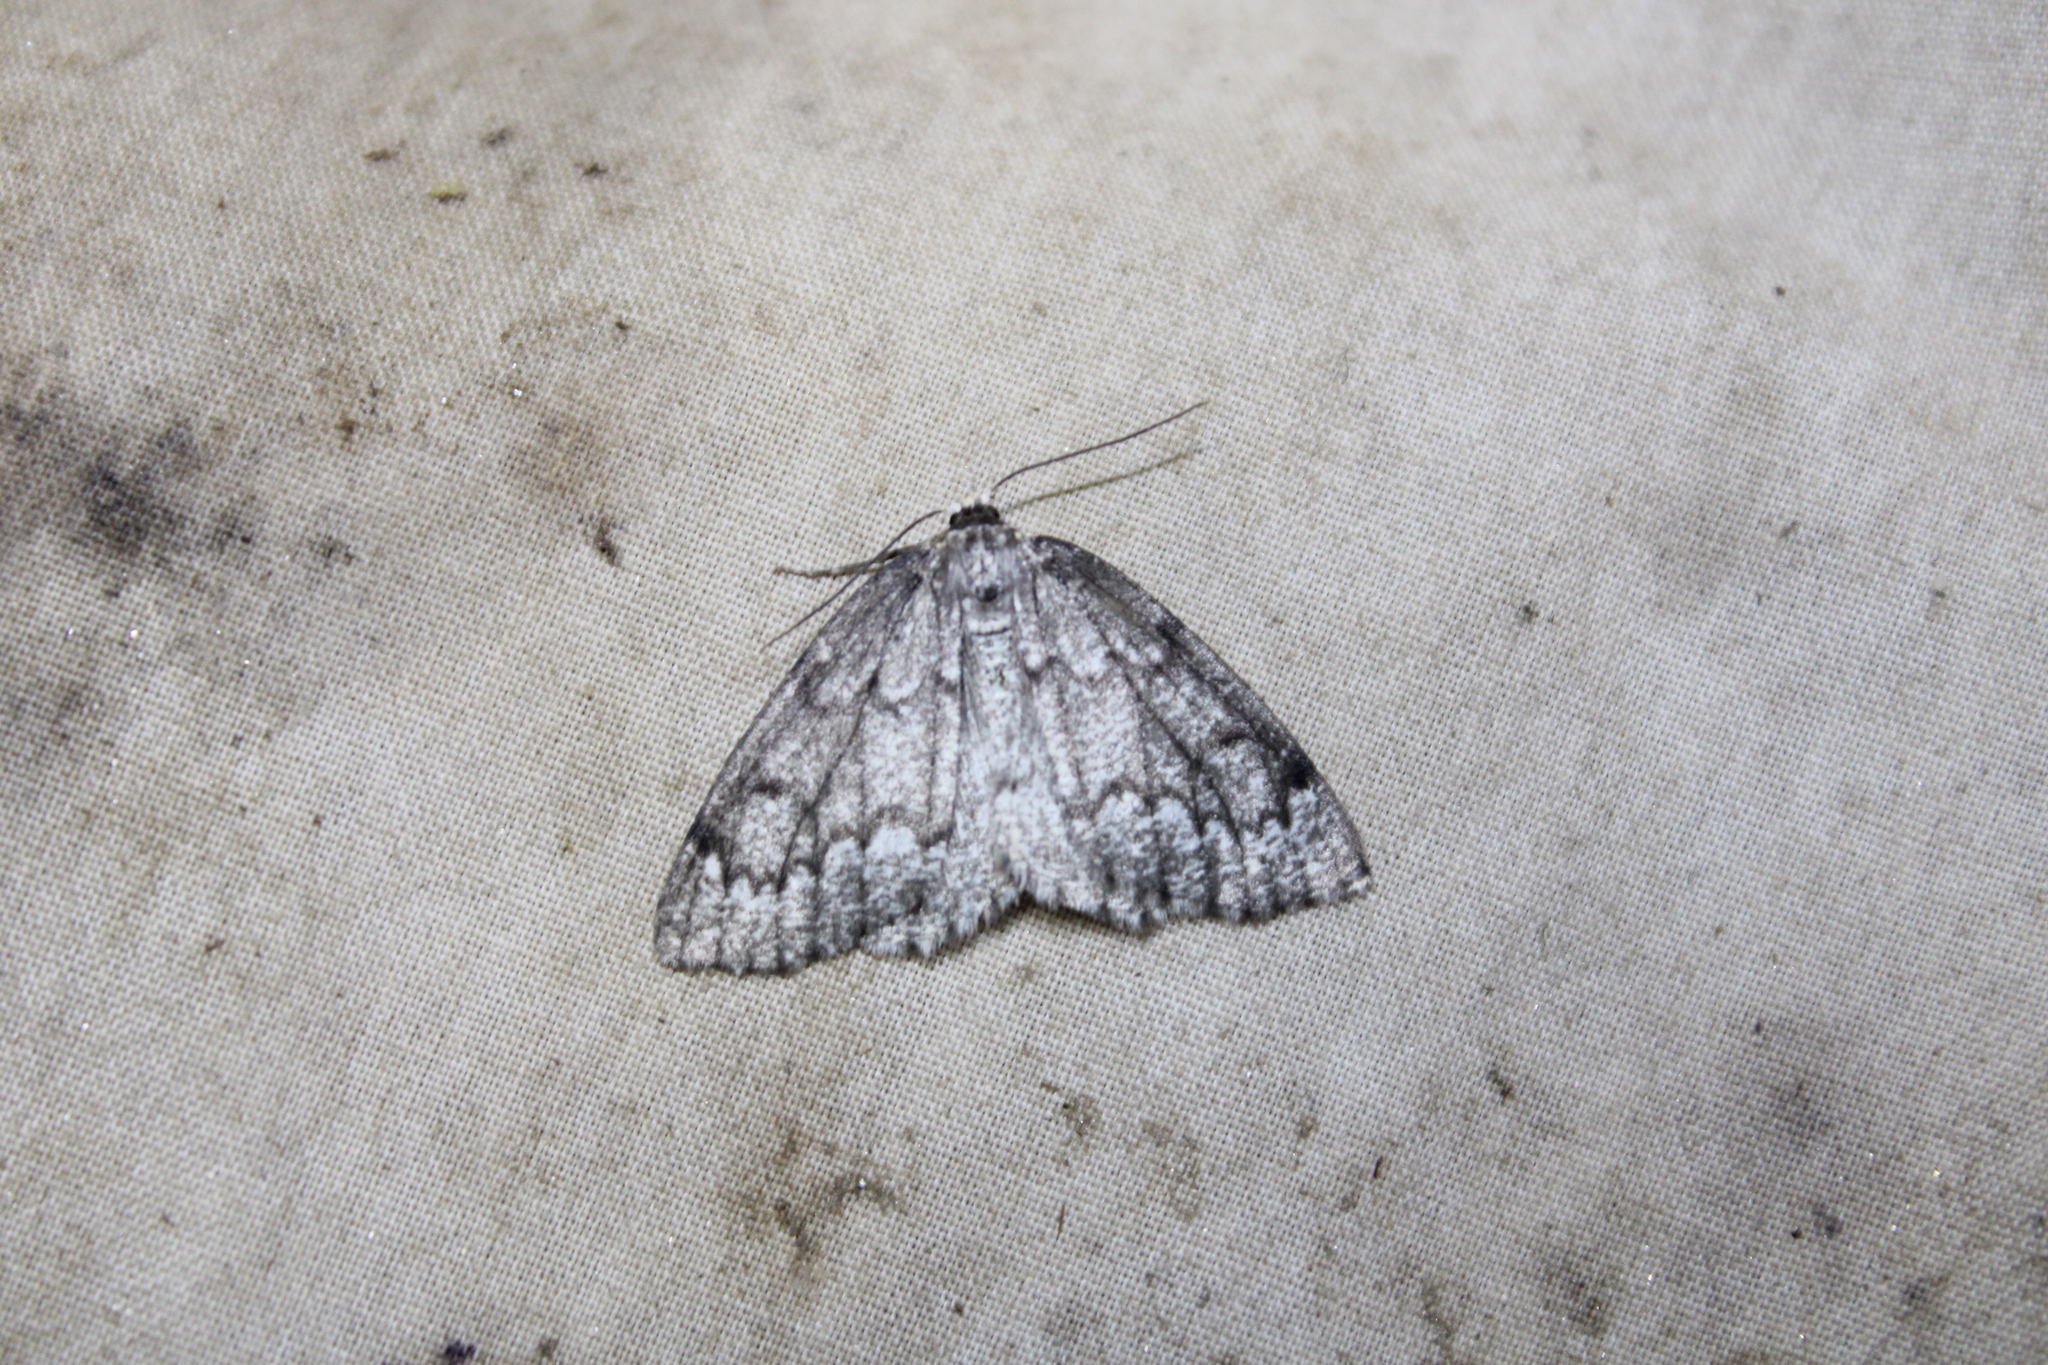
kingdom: Animalia
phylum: Arthropoda
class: Insecta
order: Lepidoptera
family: Geometridae
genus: Nepytia
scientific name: Nepytia canosaria
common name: False hemlock looper
